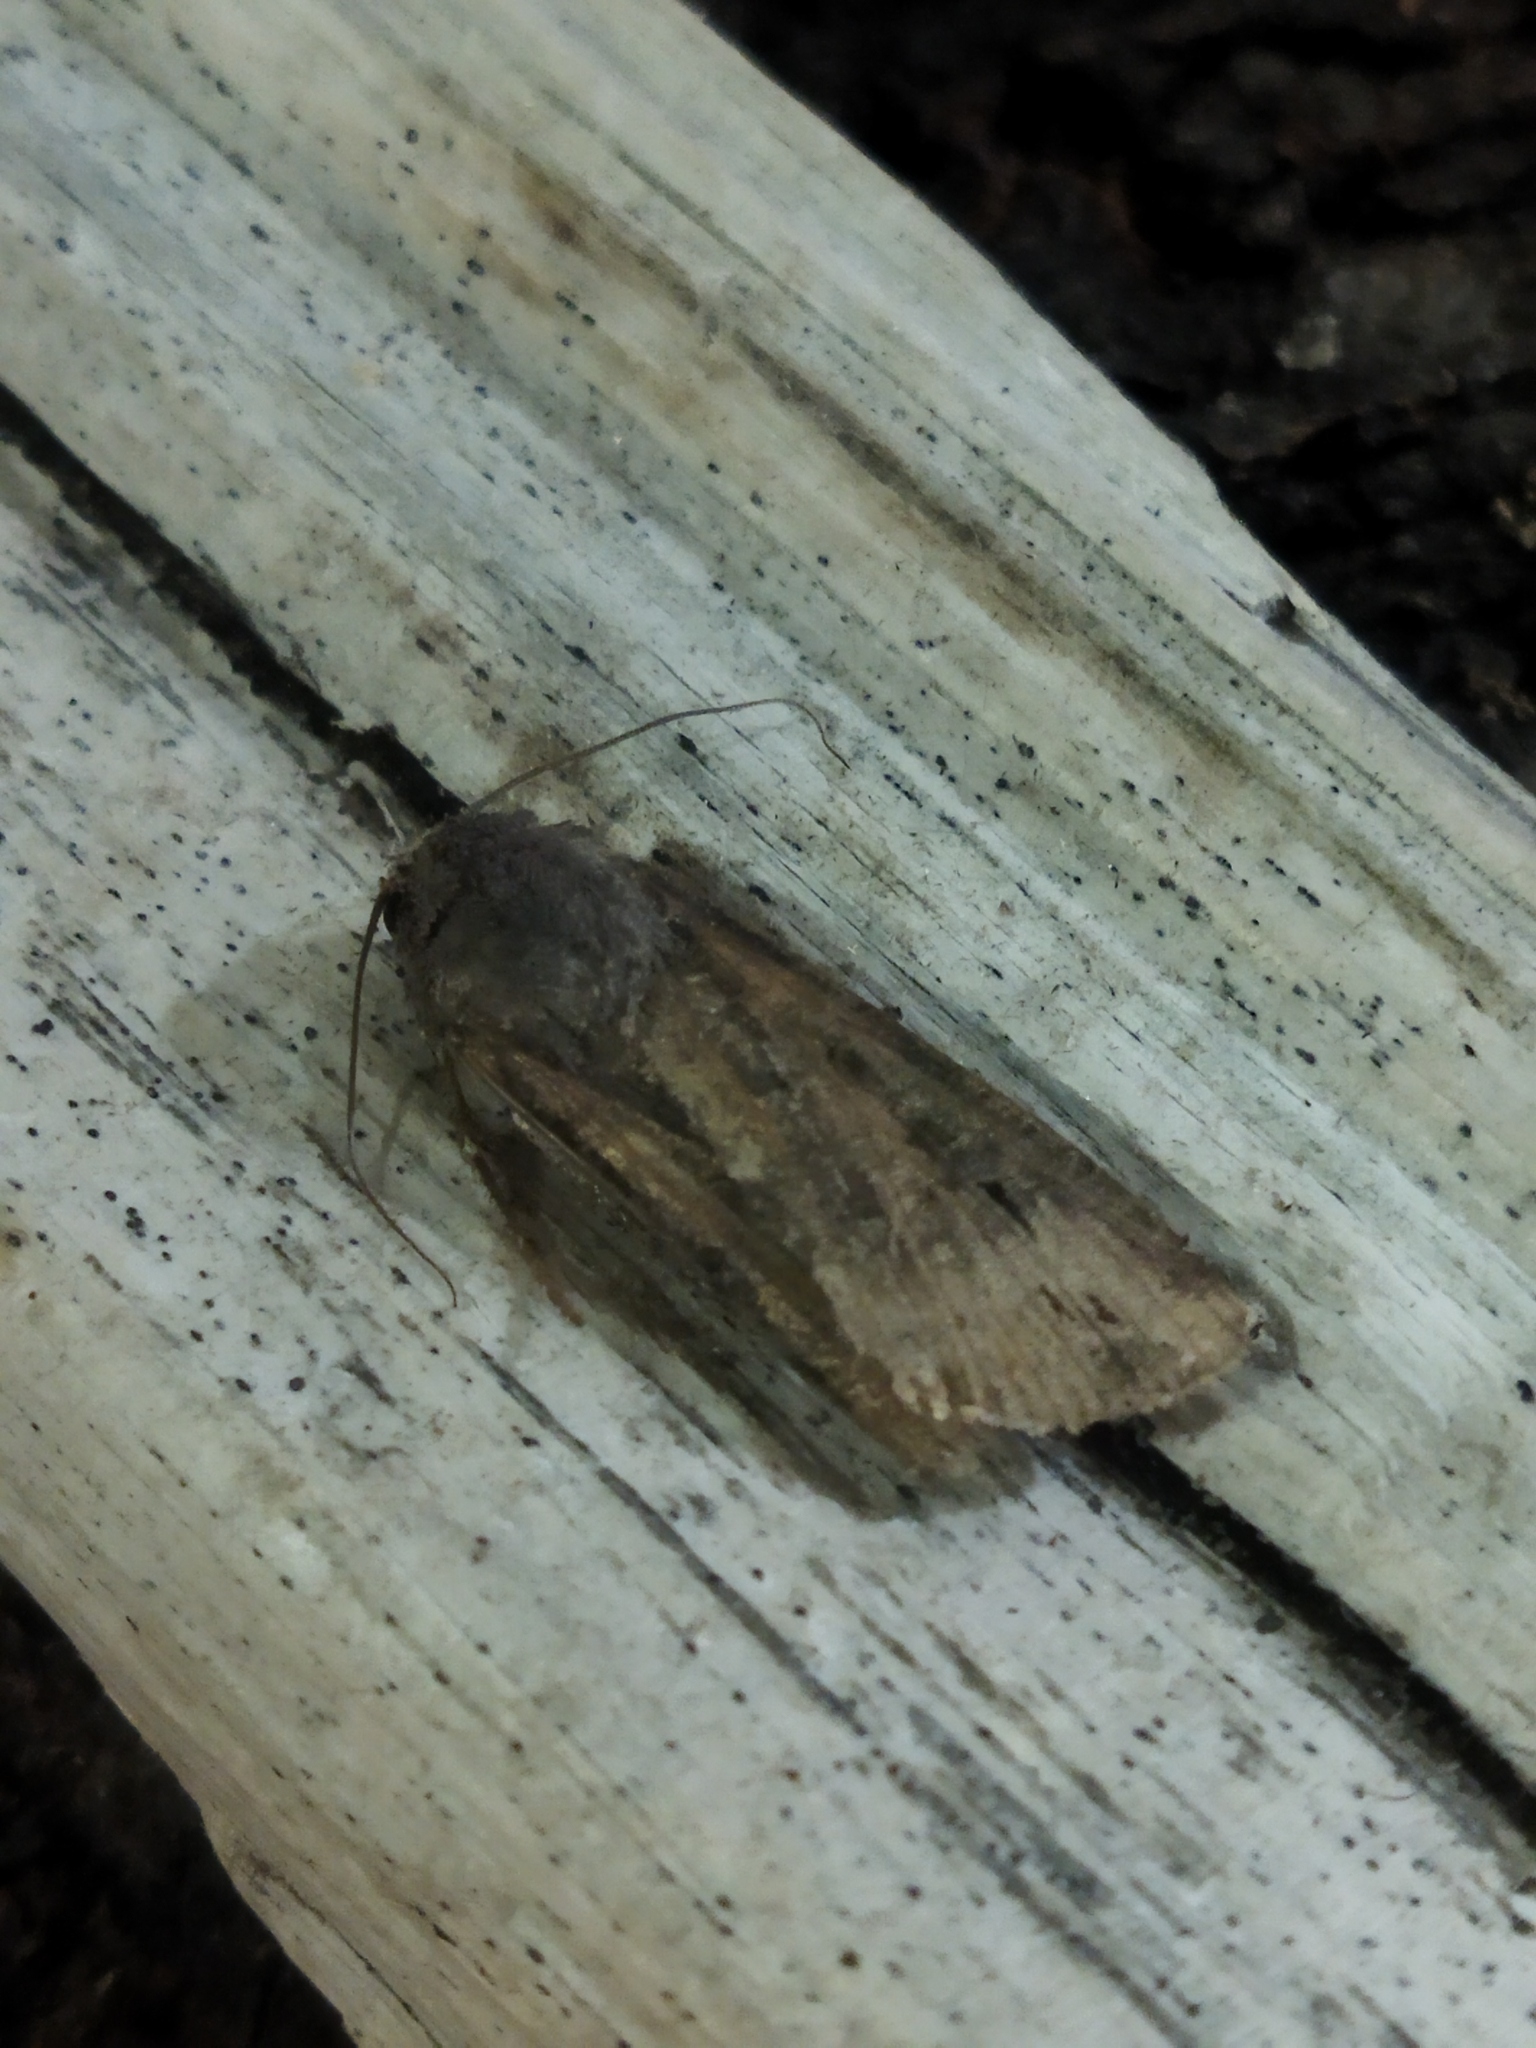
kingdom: Animalia
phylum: Arthropoda
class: Insecta
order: Lepidoptera
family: Noctuidae
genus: Agrotis
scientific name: Agrotis ipsilon
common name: Dark sword-grass
